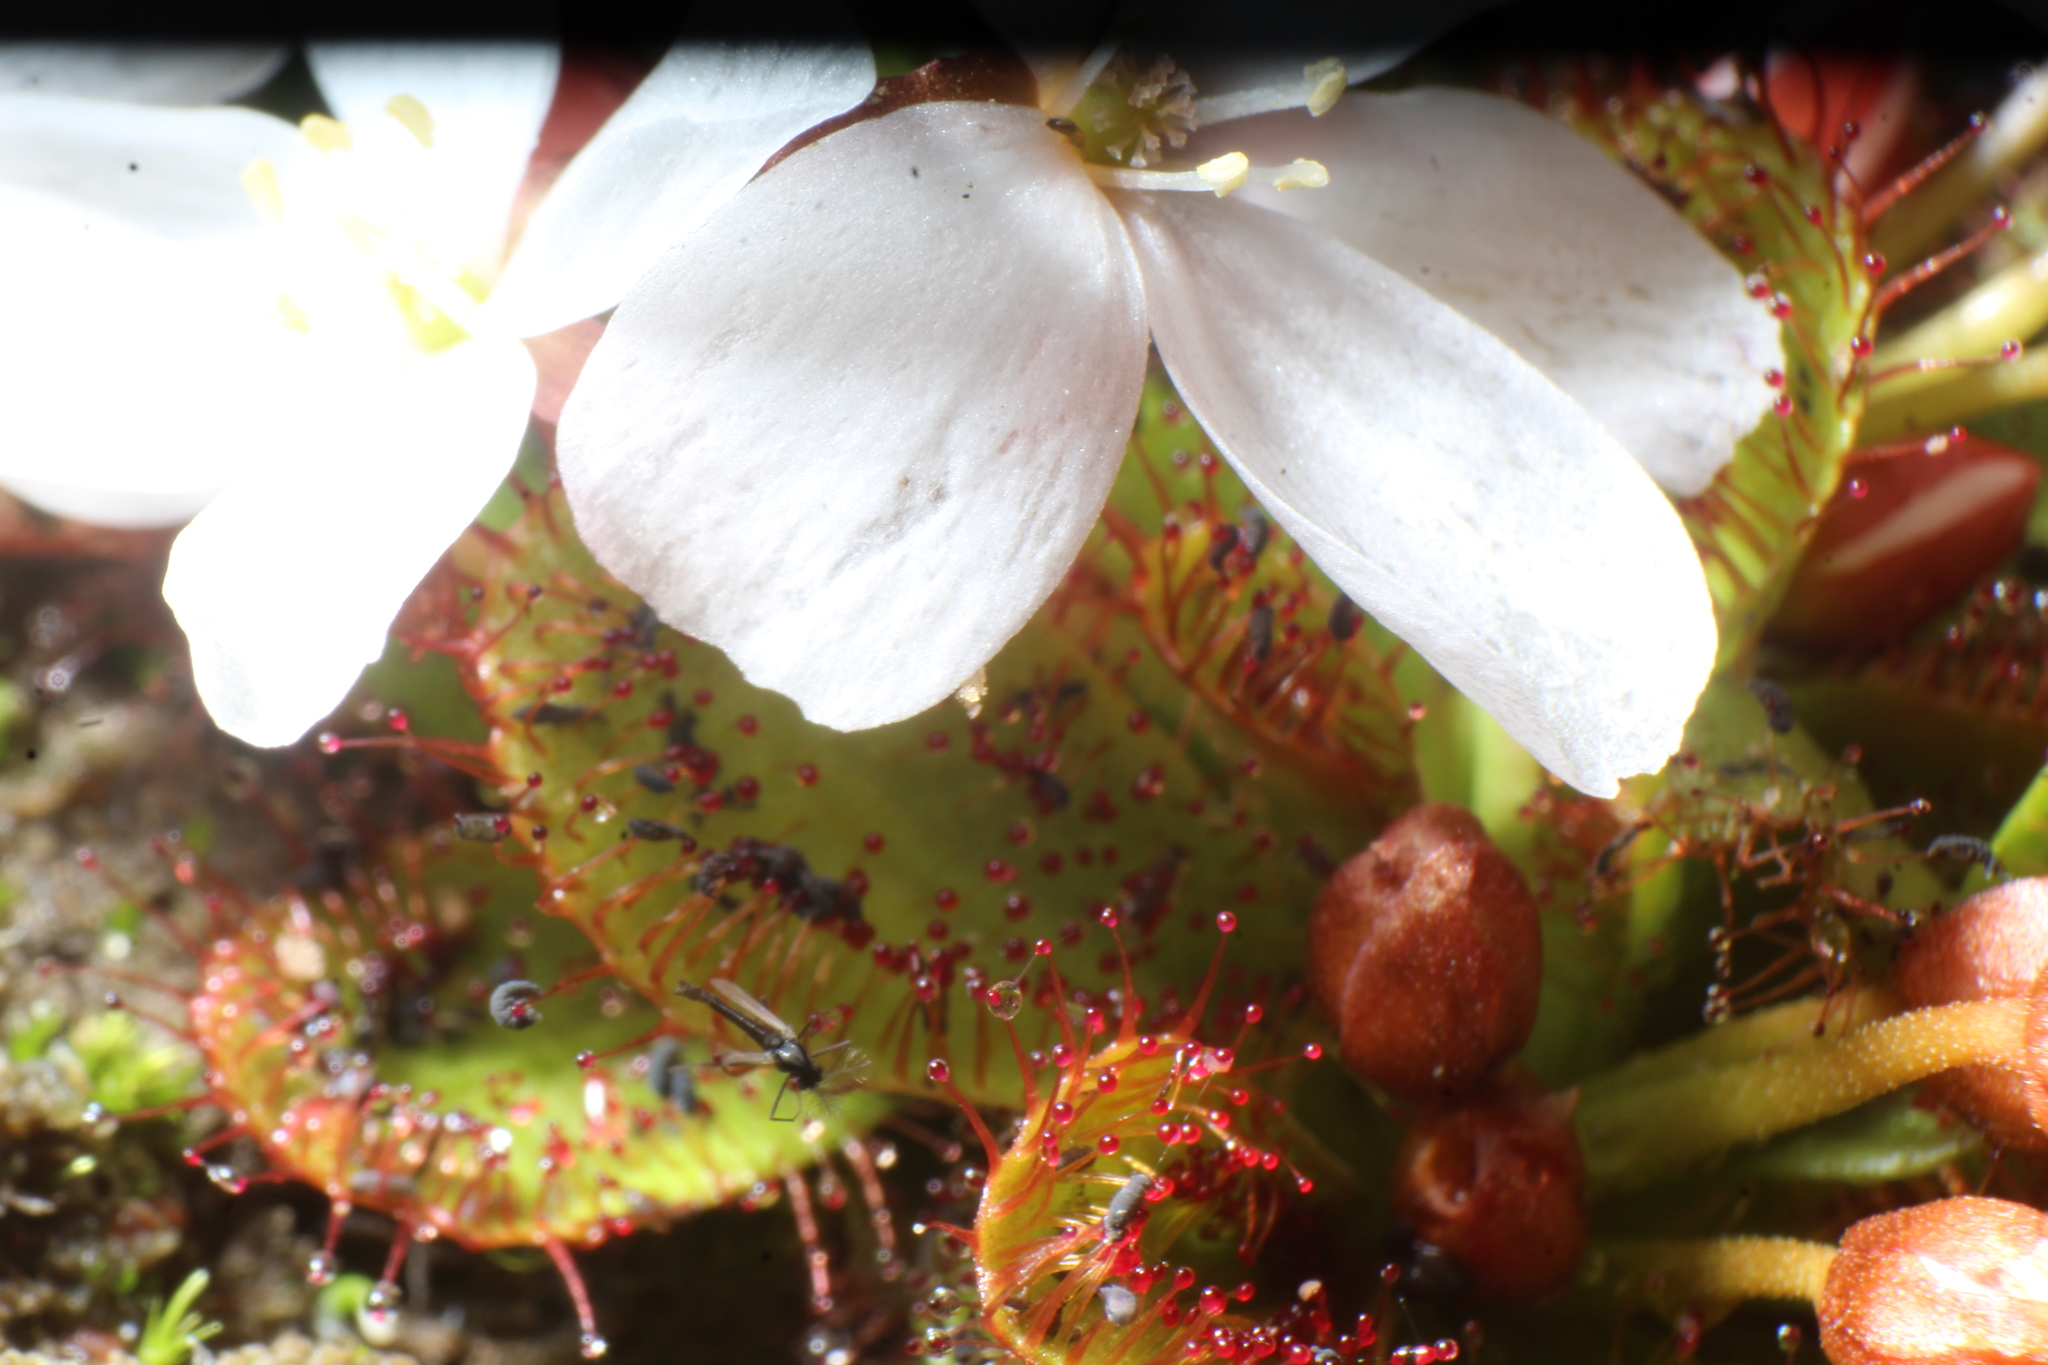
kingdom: Plantae
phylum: Tracheophyta
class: Magnoliopsida
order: Caryophyllales
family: Droseraceae
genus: Drosera
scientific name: Drosera tubaestylis
